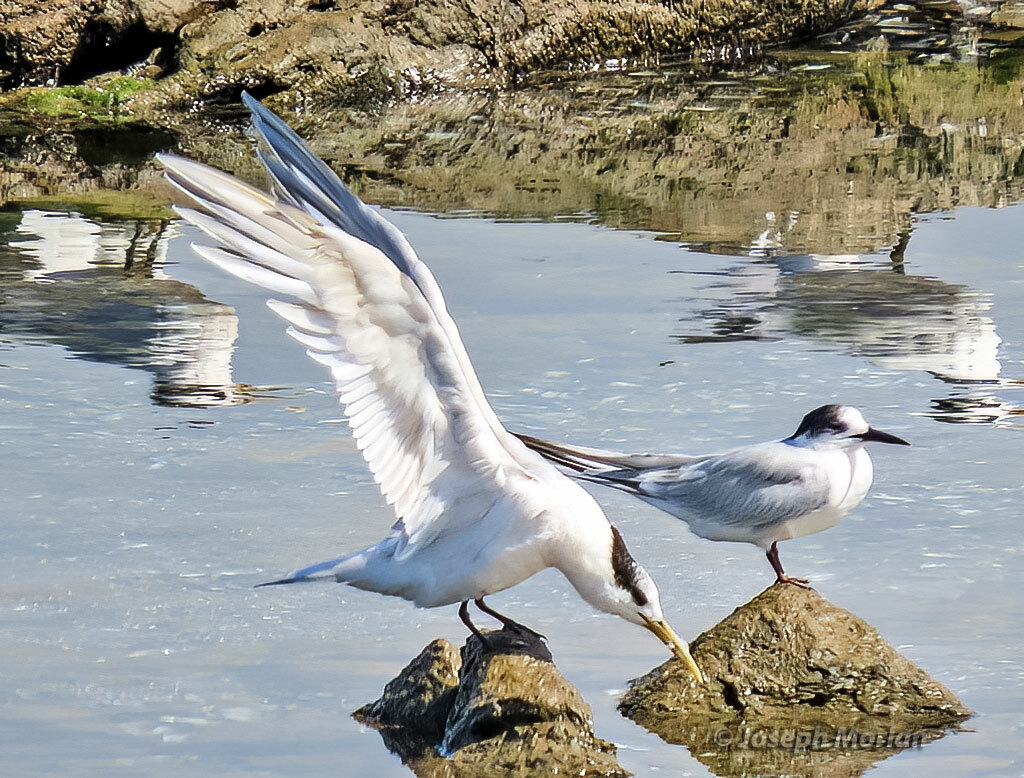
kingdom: Animalia
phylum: Chordata
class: Aves
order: Charadriiformes
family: Laridae
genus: Thalasseus
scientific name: Thalasseus sandvicensis
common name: Sandwich tern
